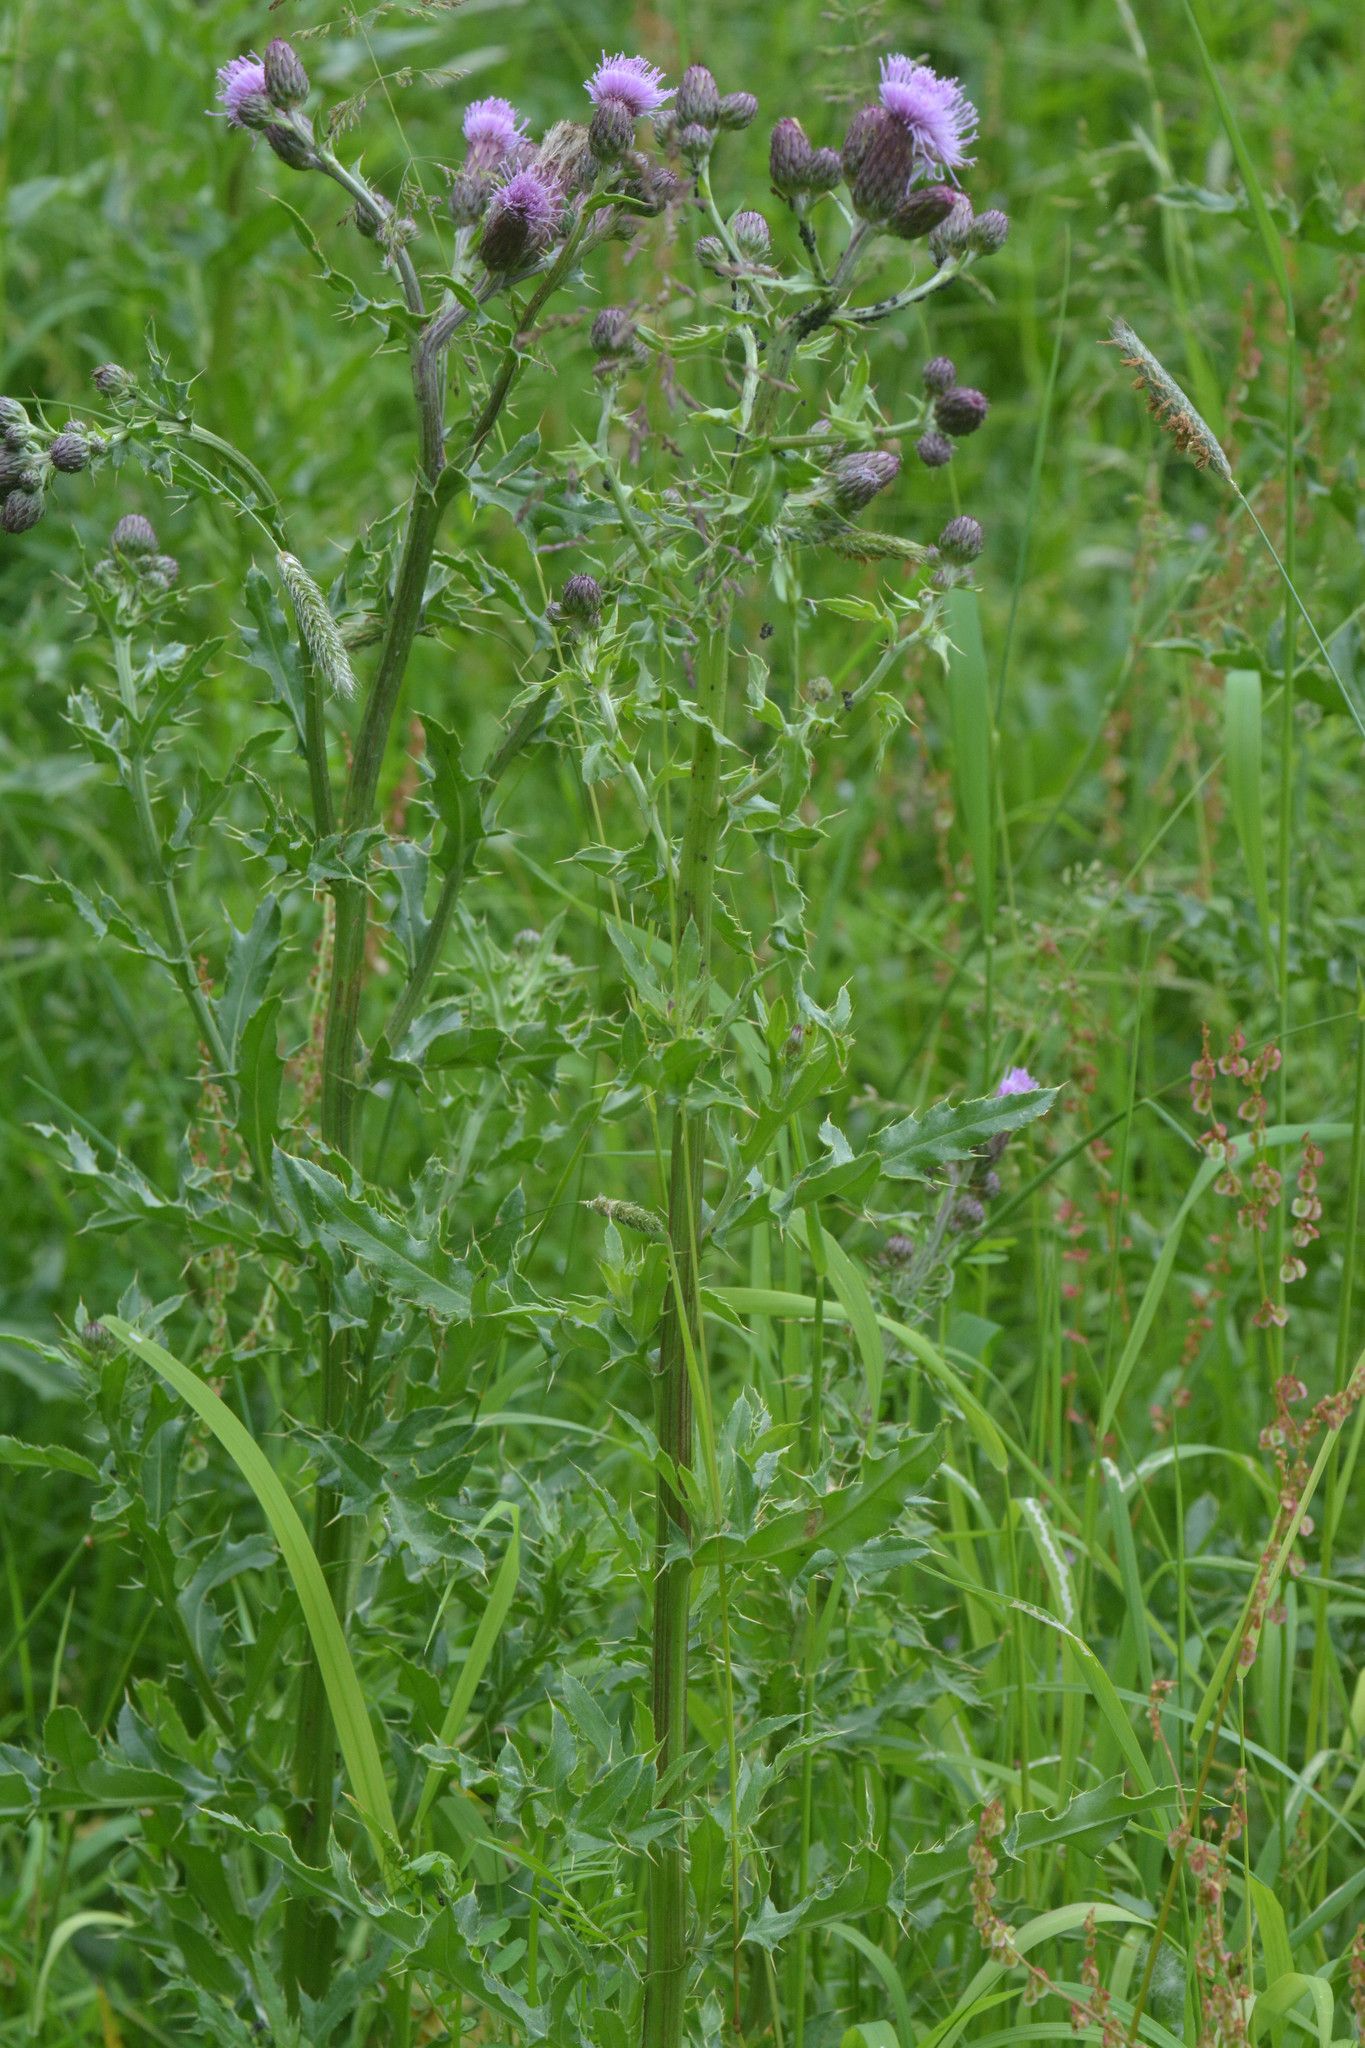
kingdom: Plantae
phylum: Tracheophyta
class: Magnoliopsida
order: Asterales
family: Asteraceae
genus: Cirsium
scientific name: Cirsium arvense
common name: Creeping thistle
